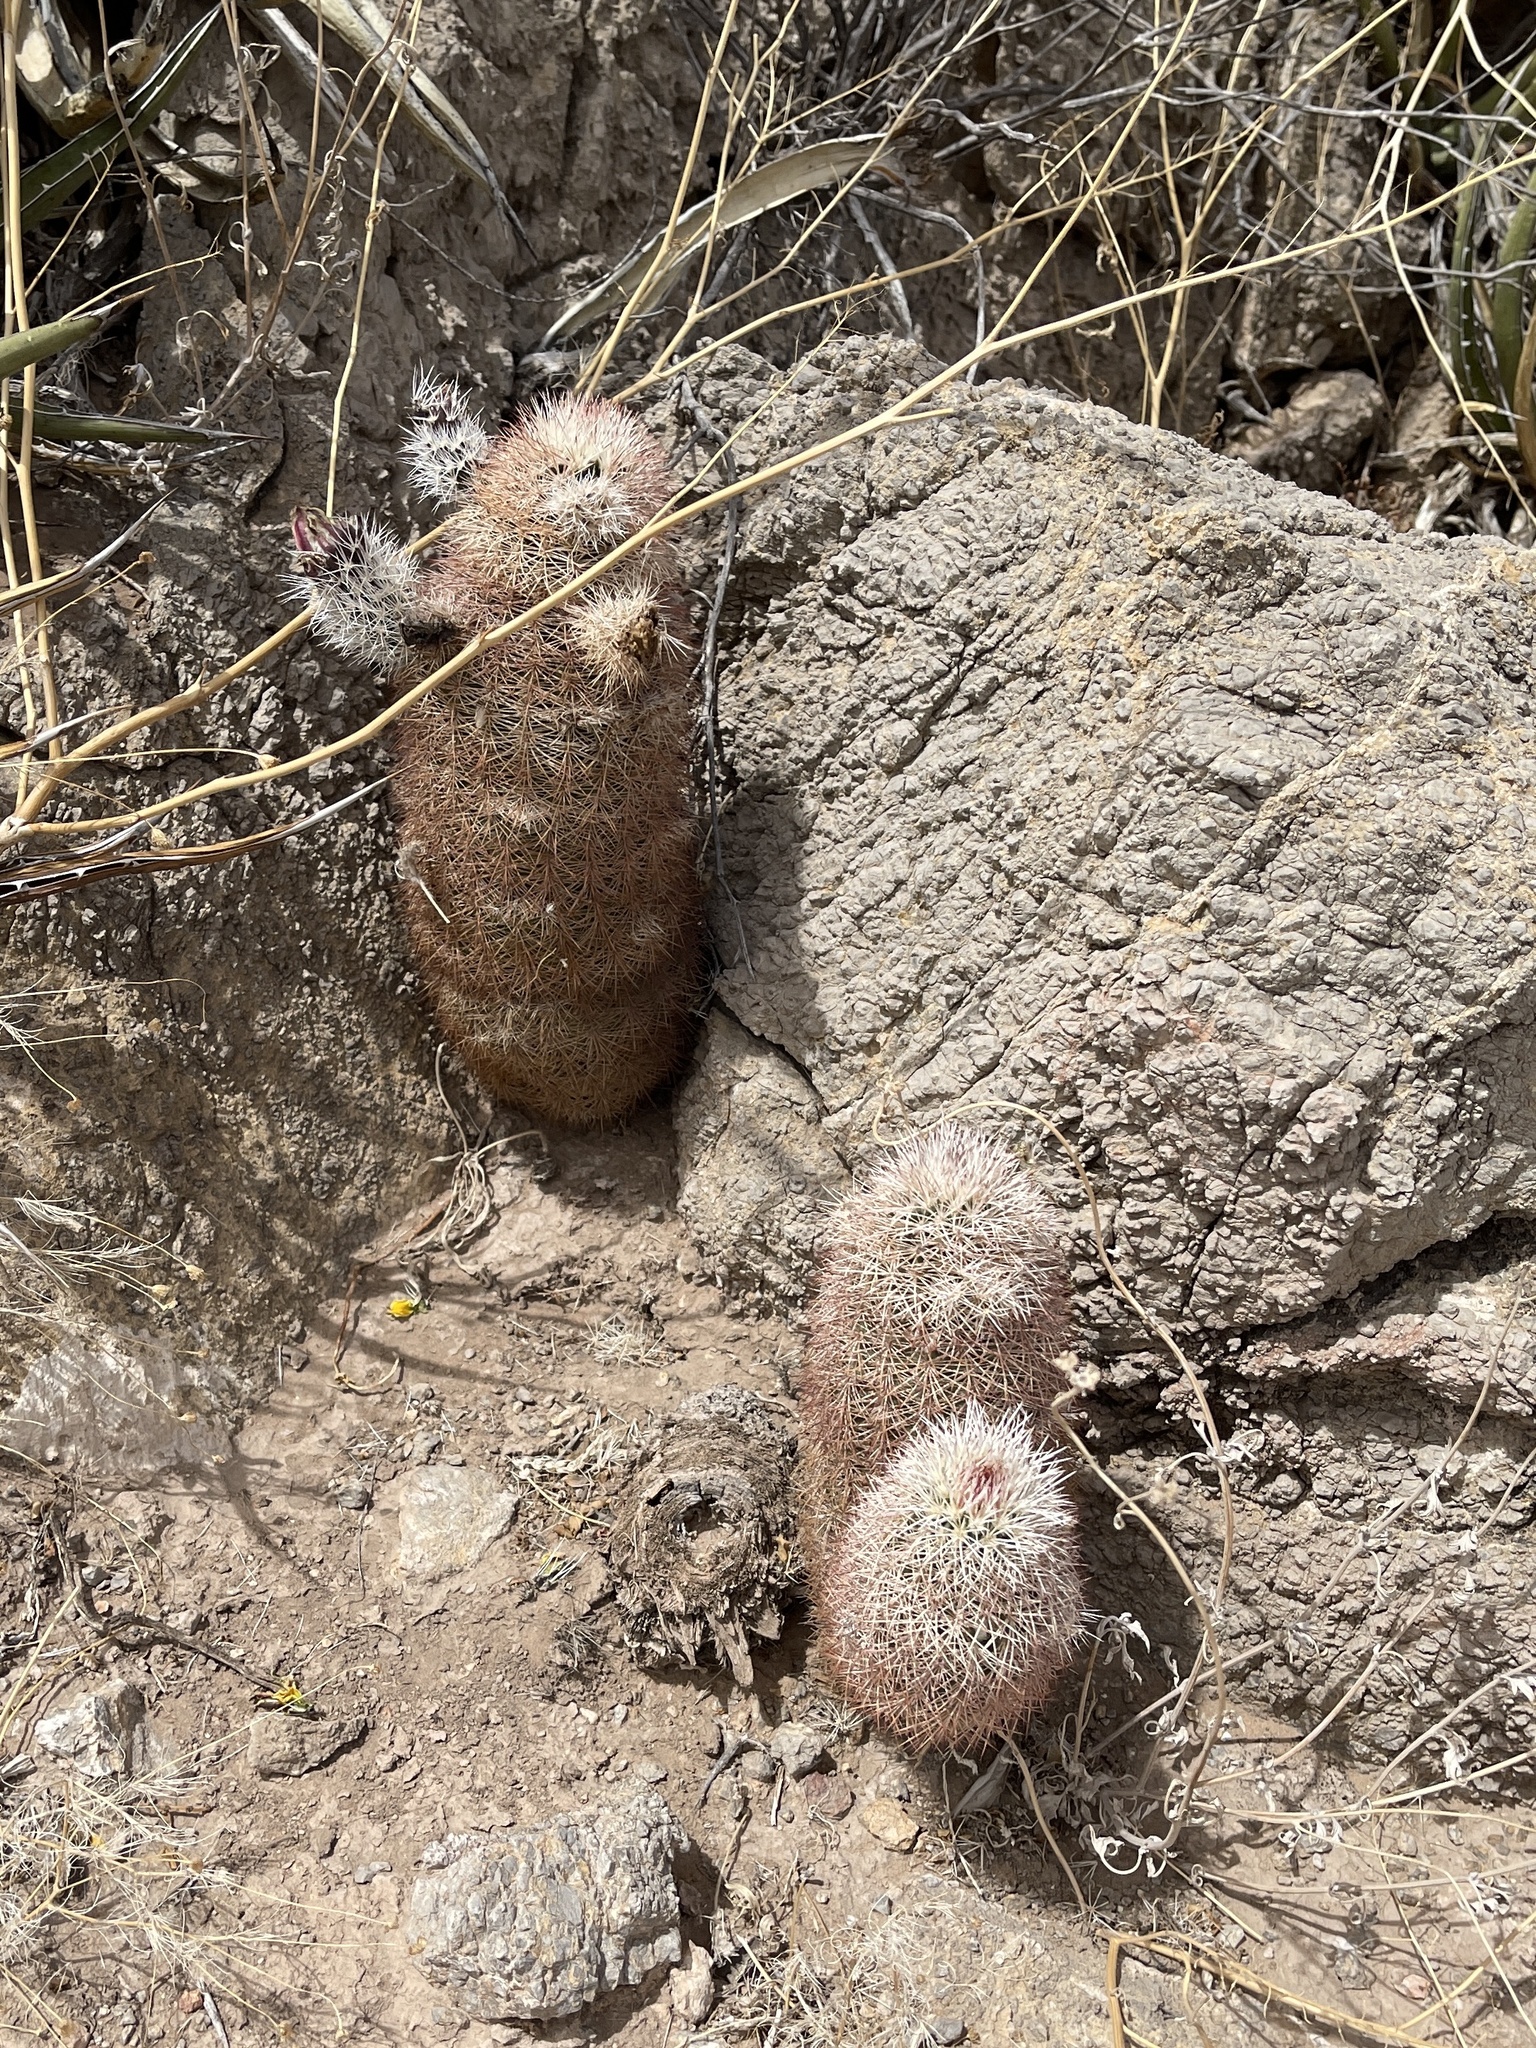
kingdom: Plantae
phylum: Tracheophyta
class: Magnoliopsida
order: Caryophyllales
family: Cactaceae
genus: Echinocereus
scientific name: Echinocereus dasyacanthus
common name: Spiny hedgehog cactus
